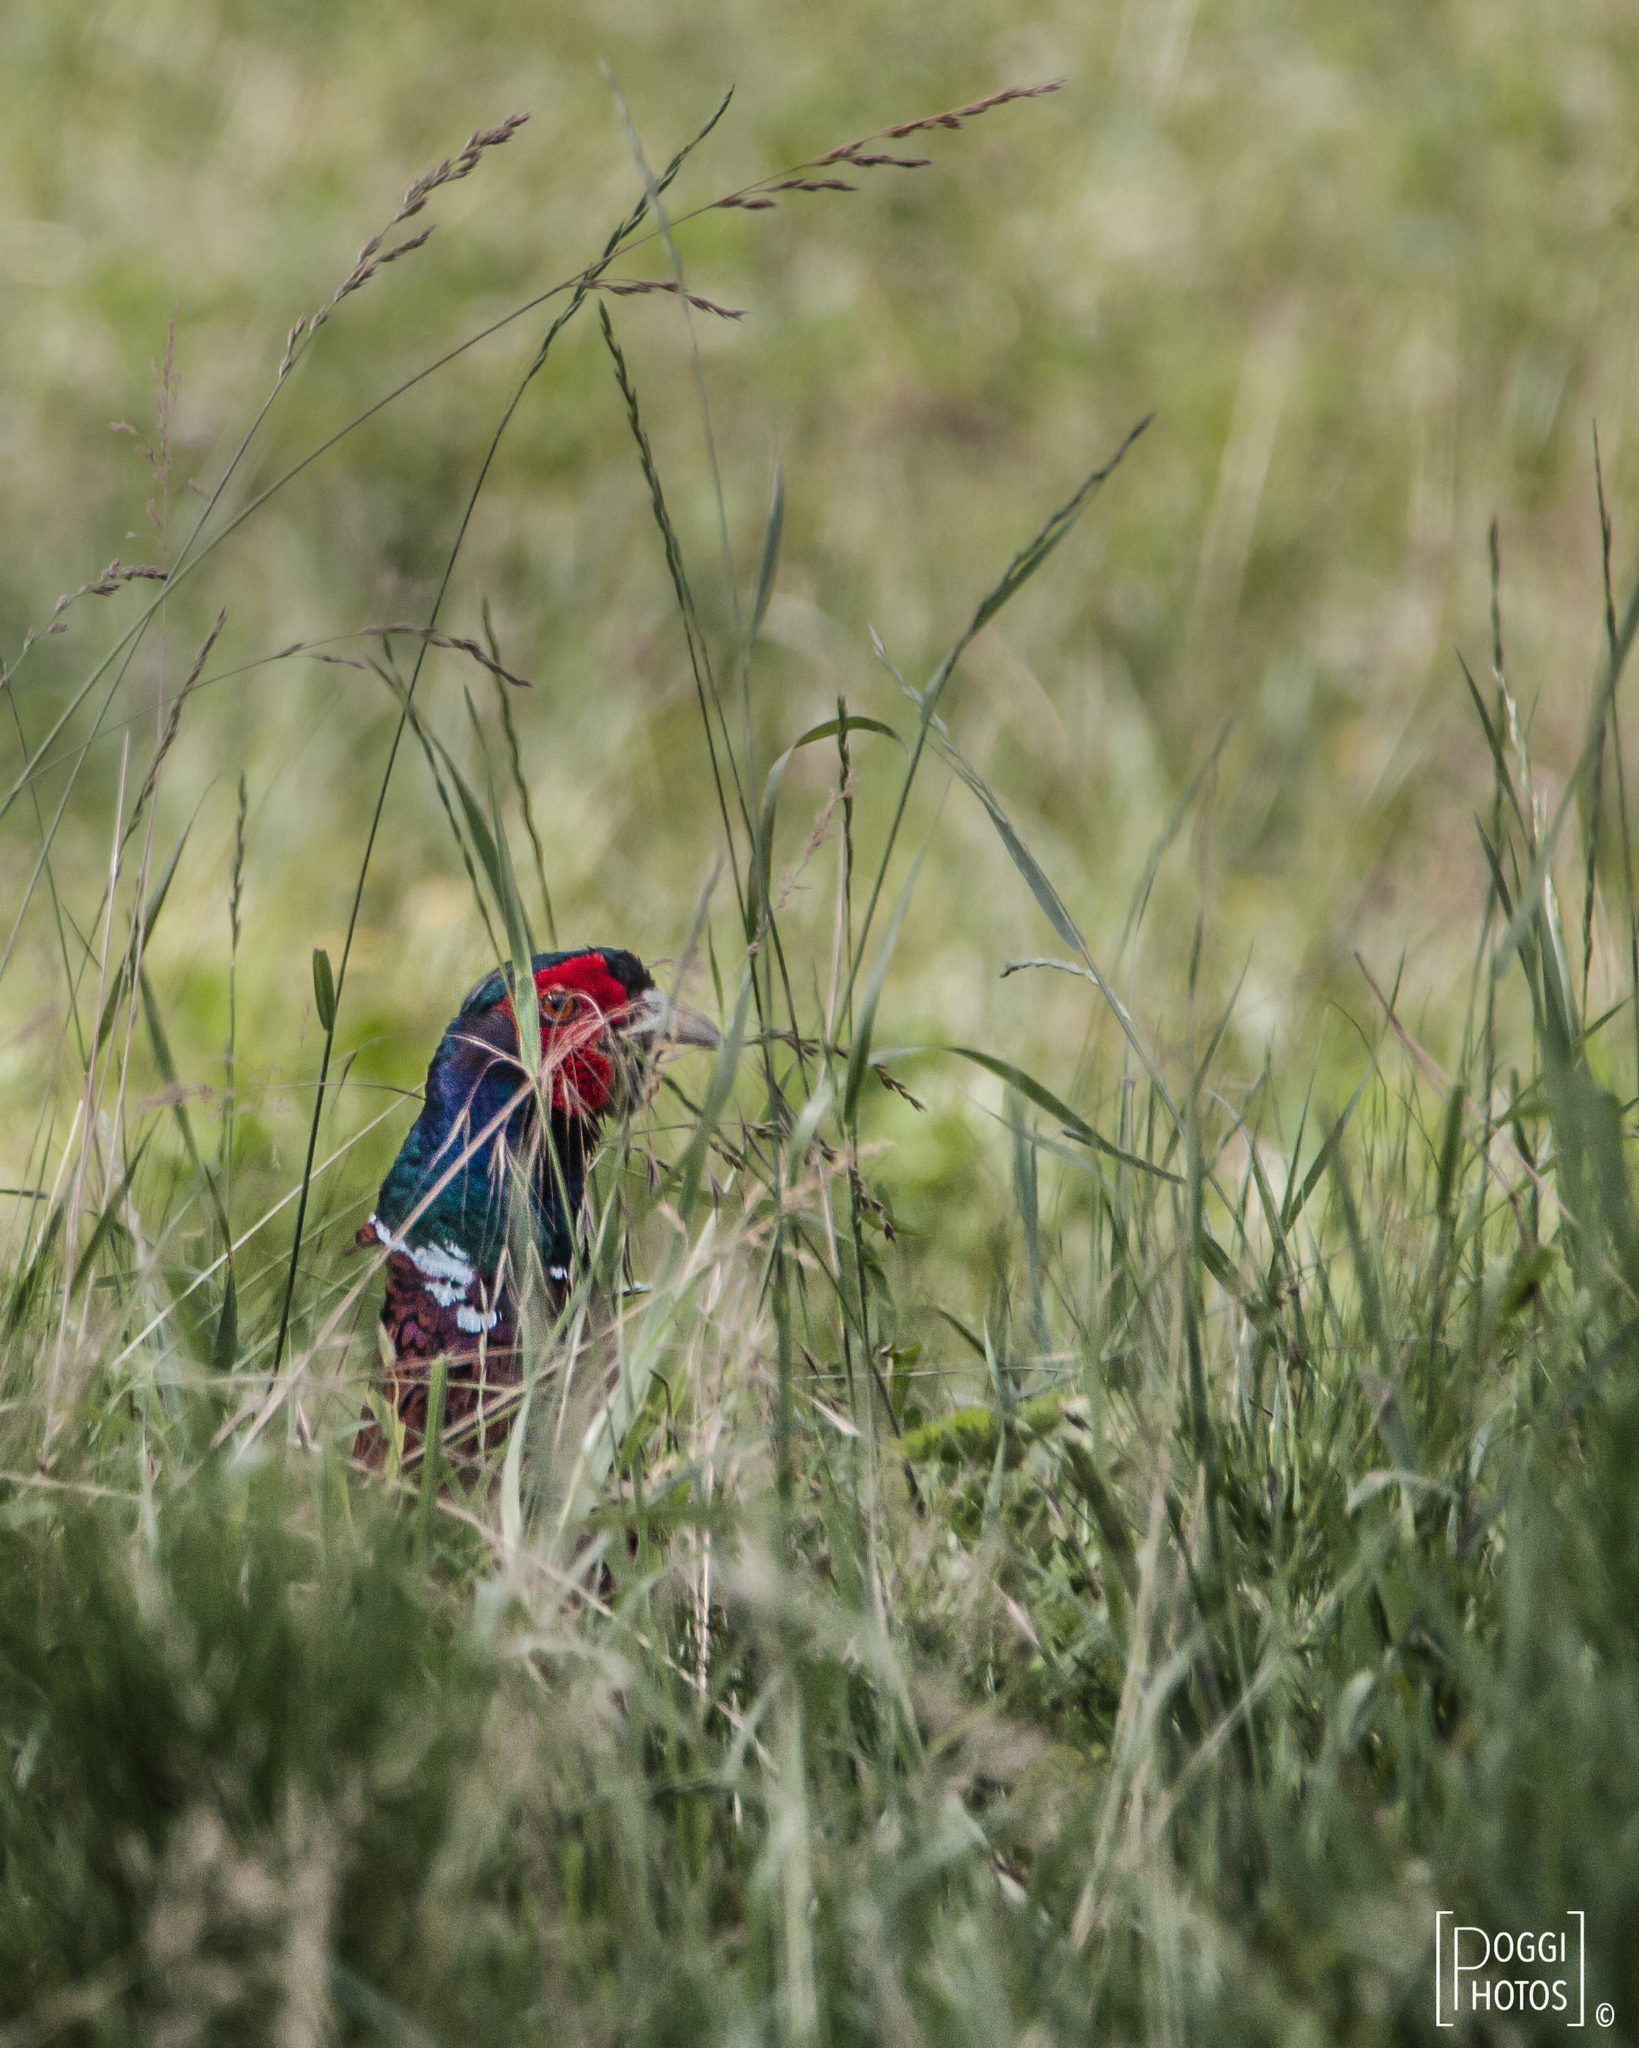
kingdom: Animalia
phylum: Chordata
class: Aves
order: Galliformes
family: Phasianidae
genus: Phasianus
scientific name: Phasianus colchicus
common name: Common pheasant
